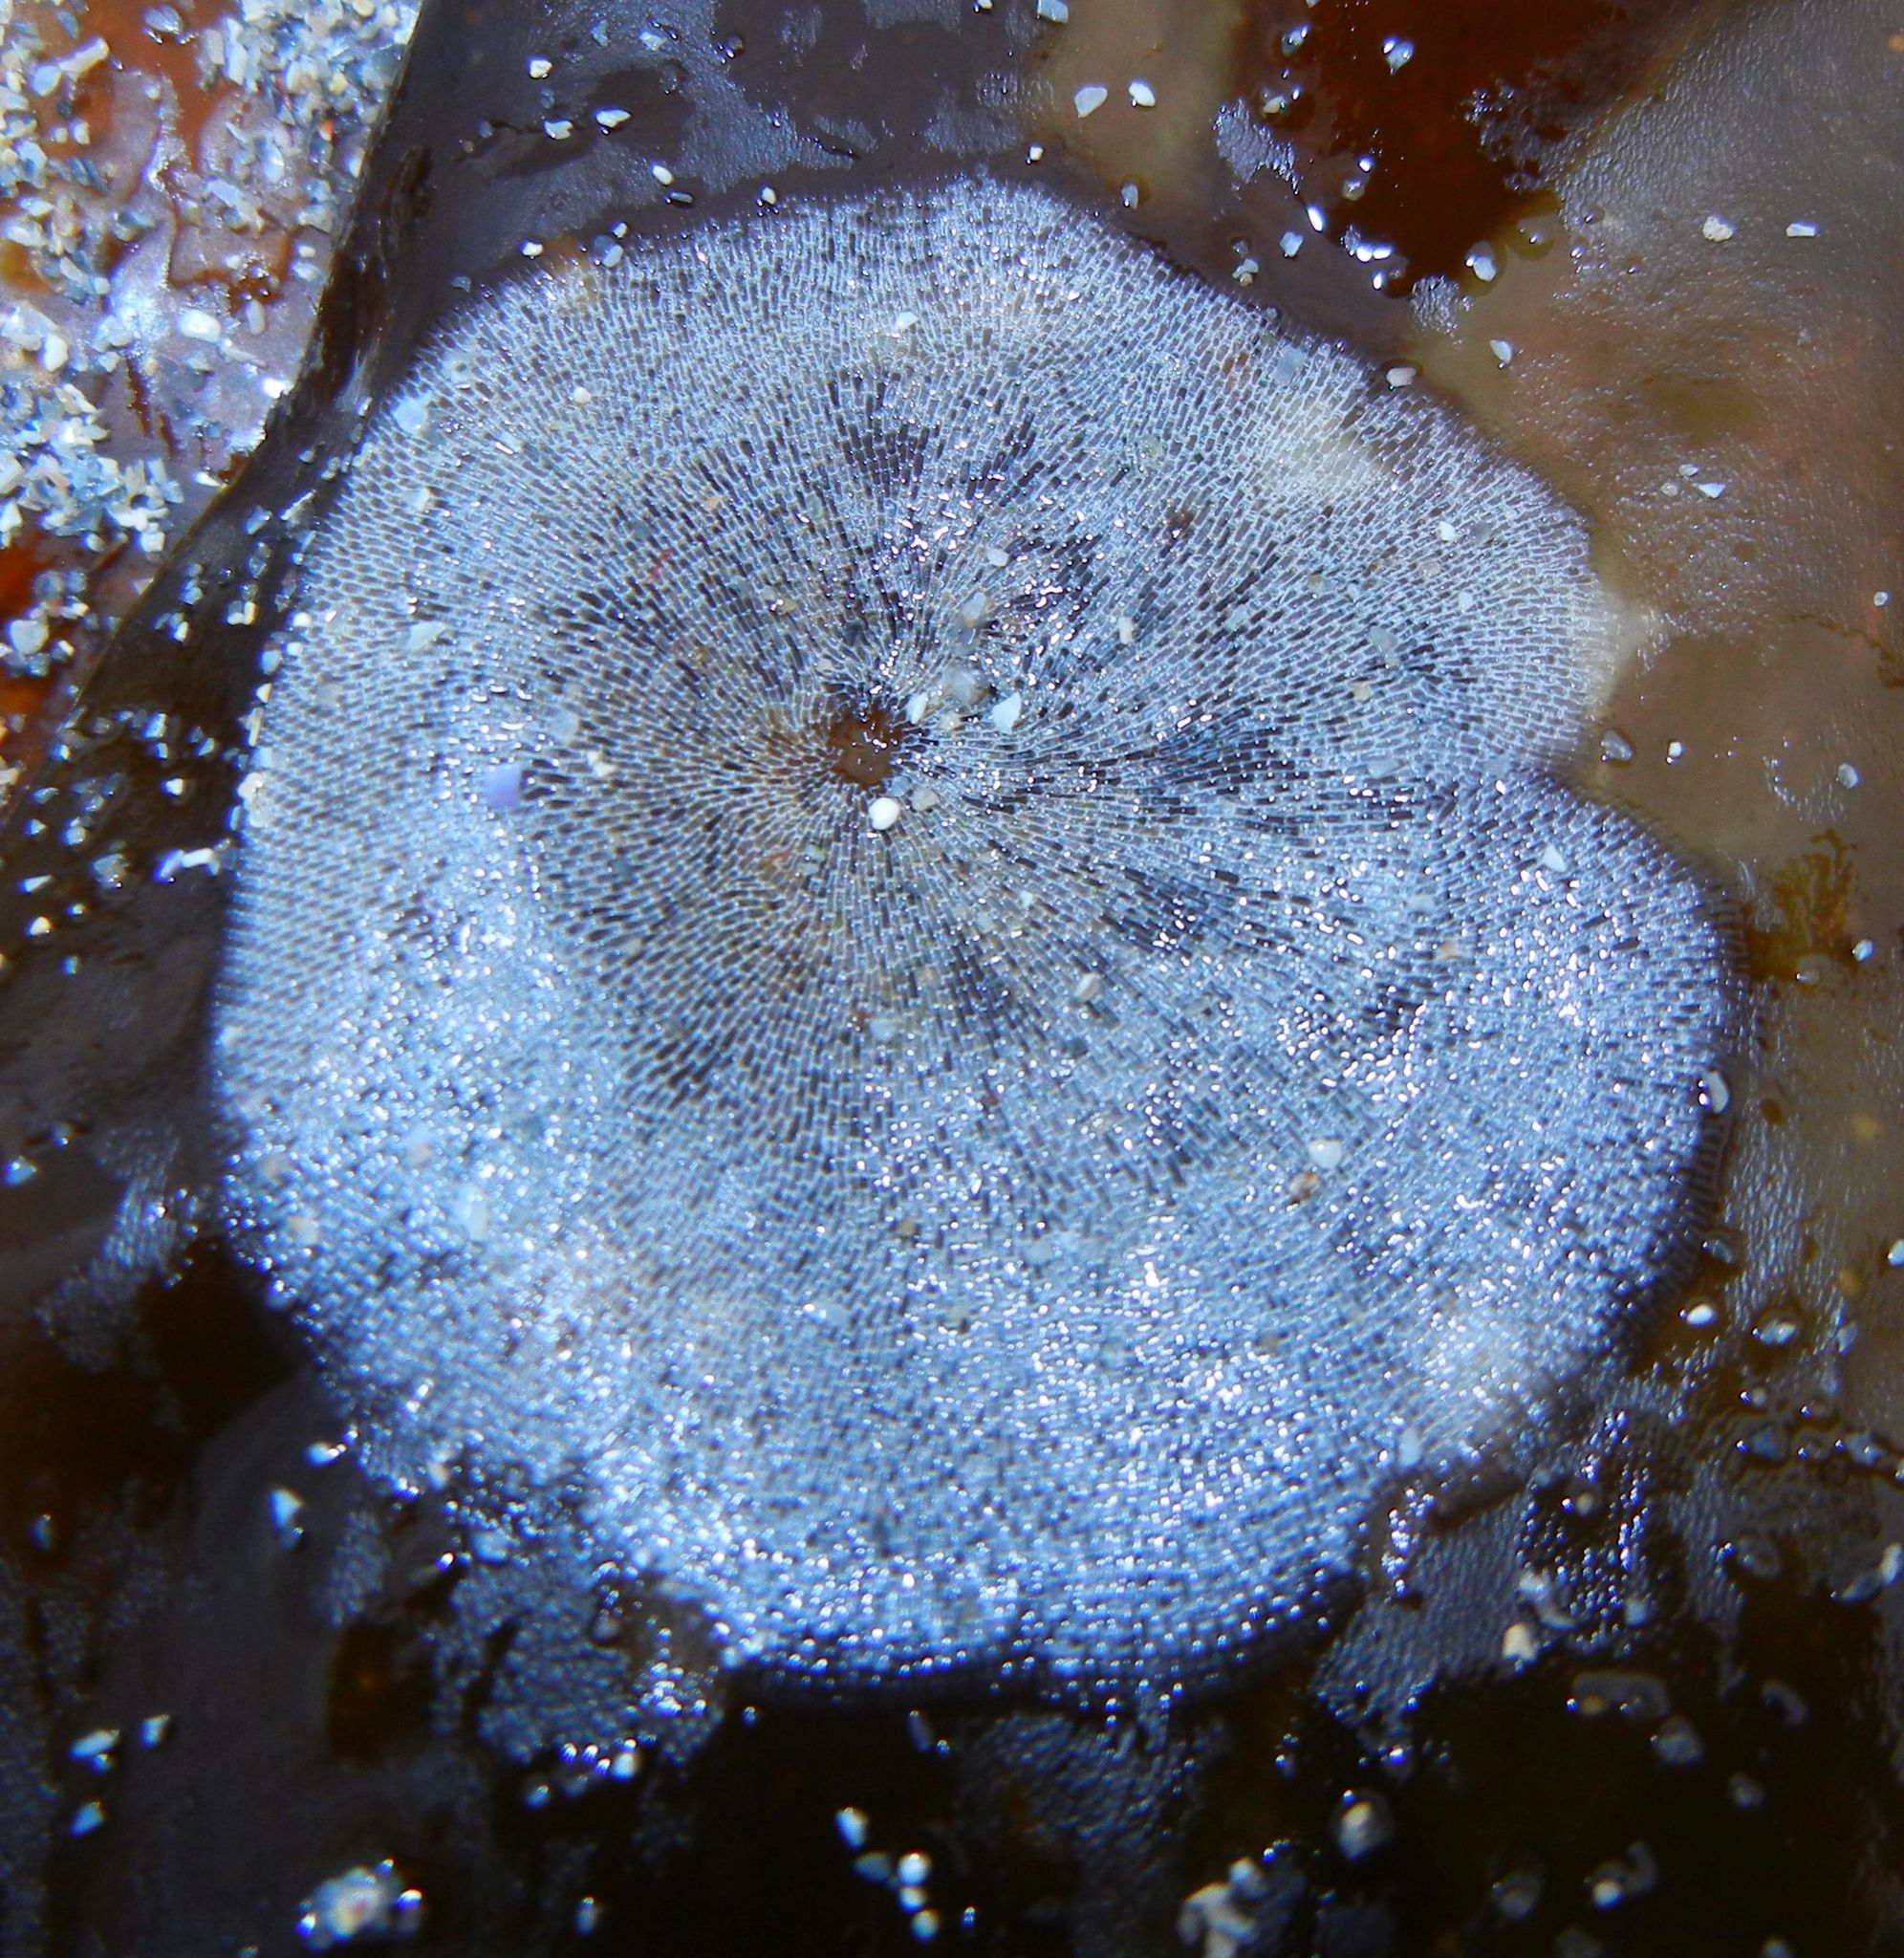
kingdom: Animalia
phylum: Bryozoa
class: Gymnolaemata
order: Cheilostomatida
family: Membraniporidae
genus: Membranipora
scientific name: Membranipora membranacea
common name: Sea mat
